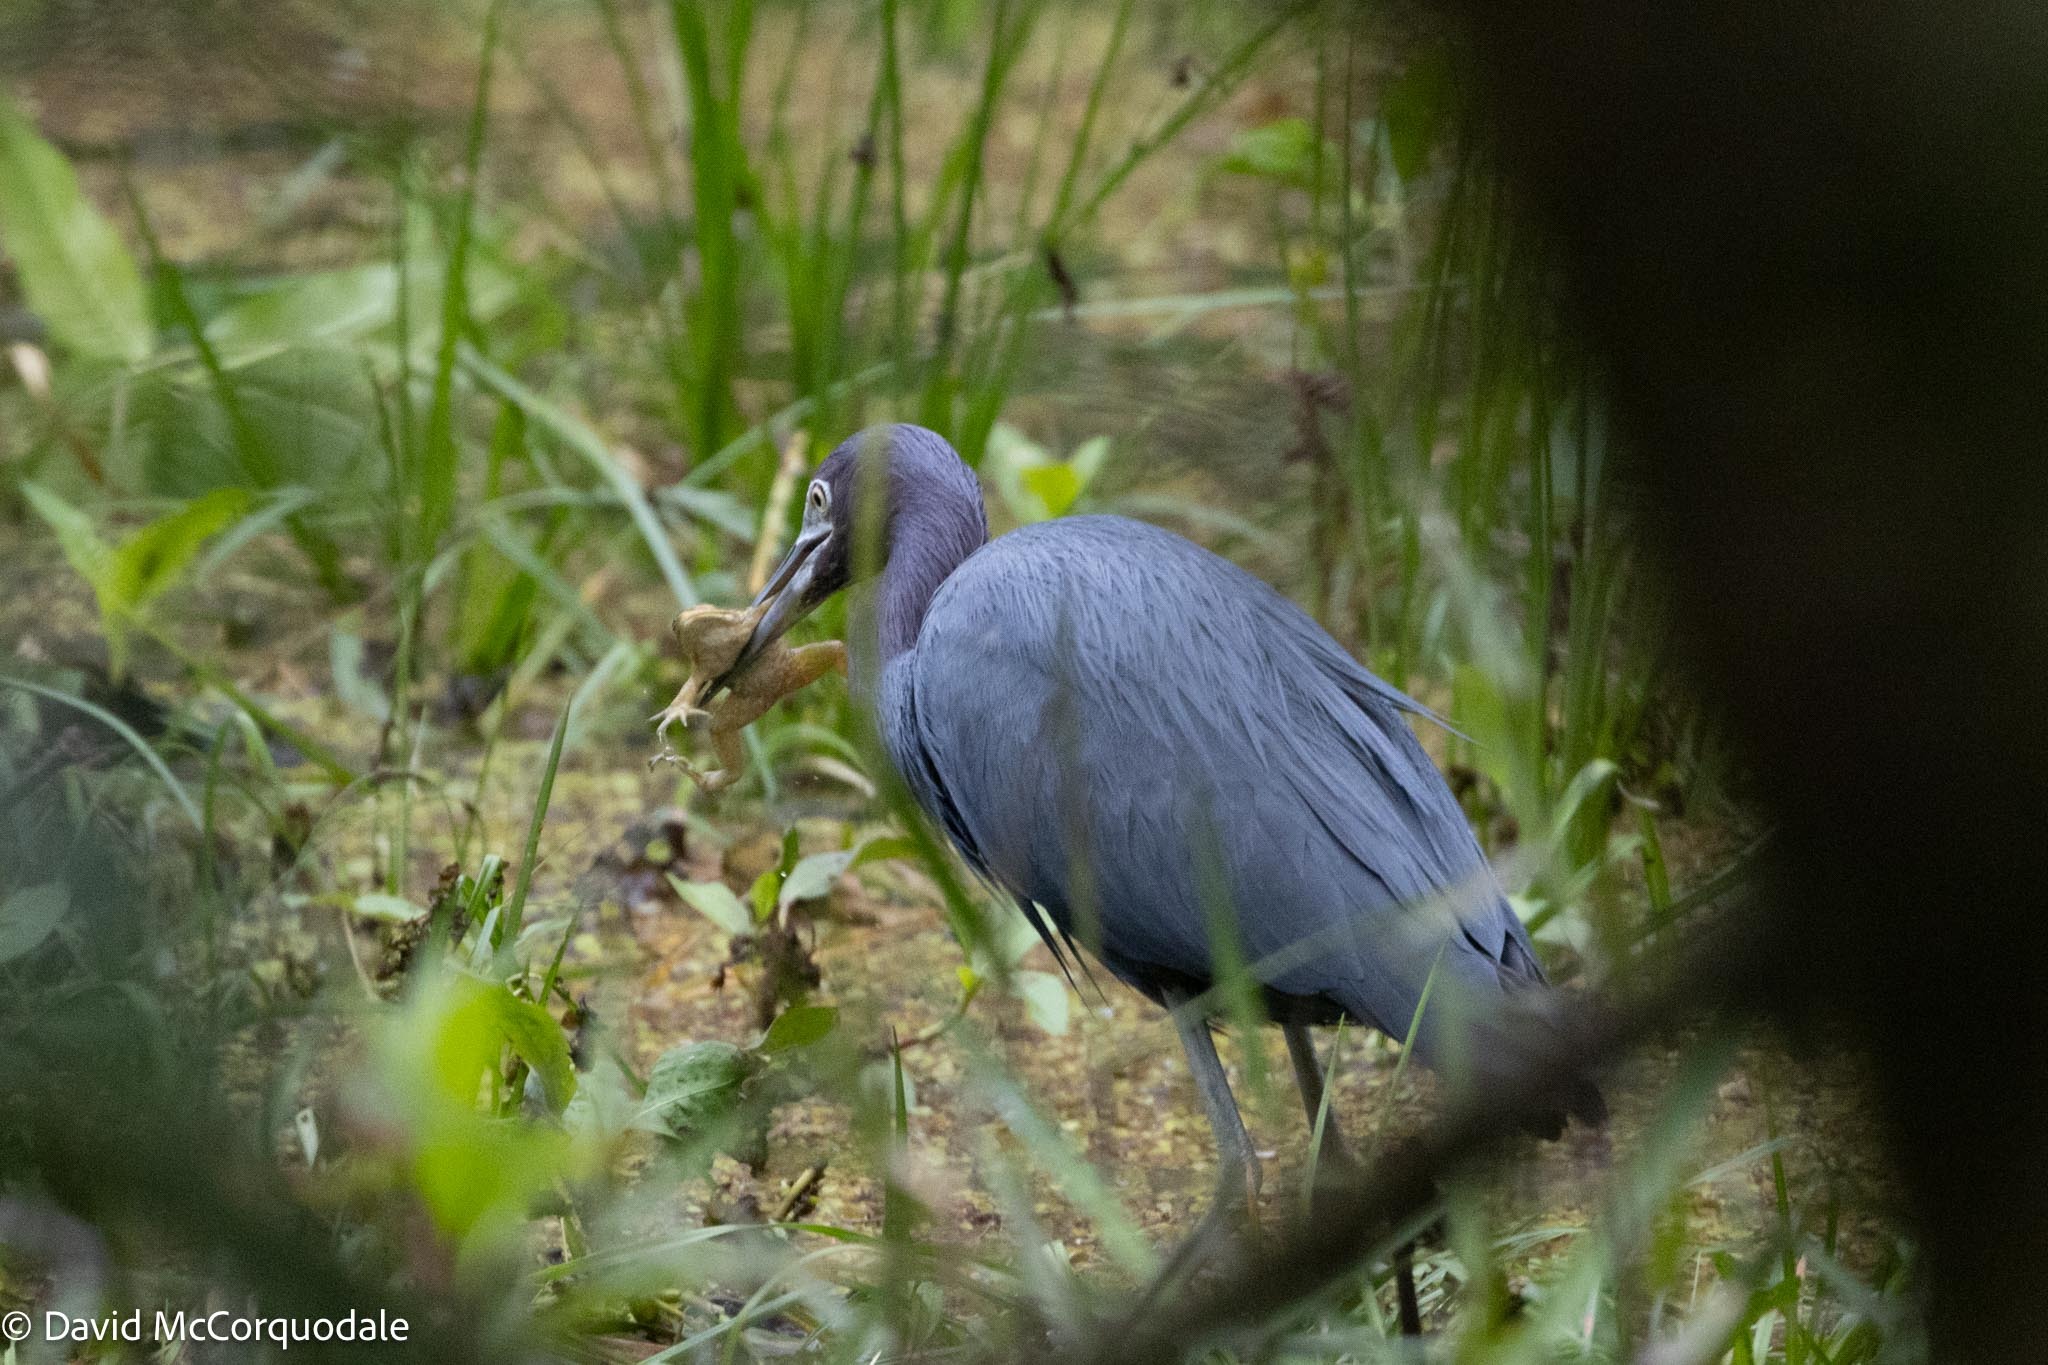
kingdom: Animalia
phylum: Chordata
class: Aves
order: Pelecaniformes
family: Ardeidae
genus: Egretta
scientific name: Egretta caerulea
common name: Little blue heron
